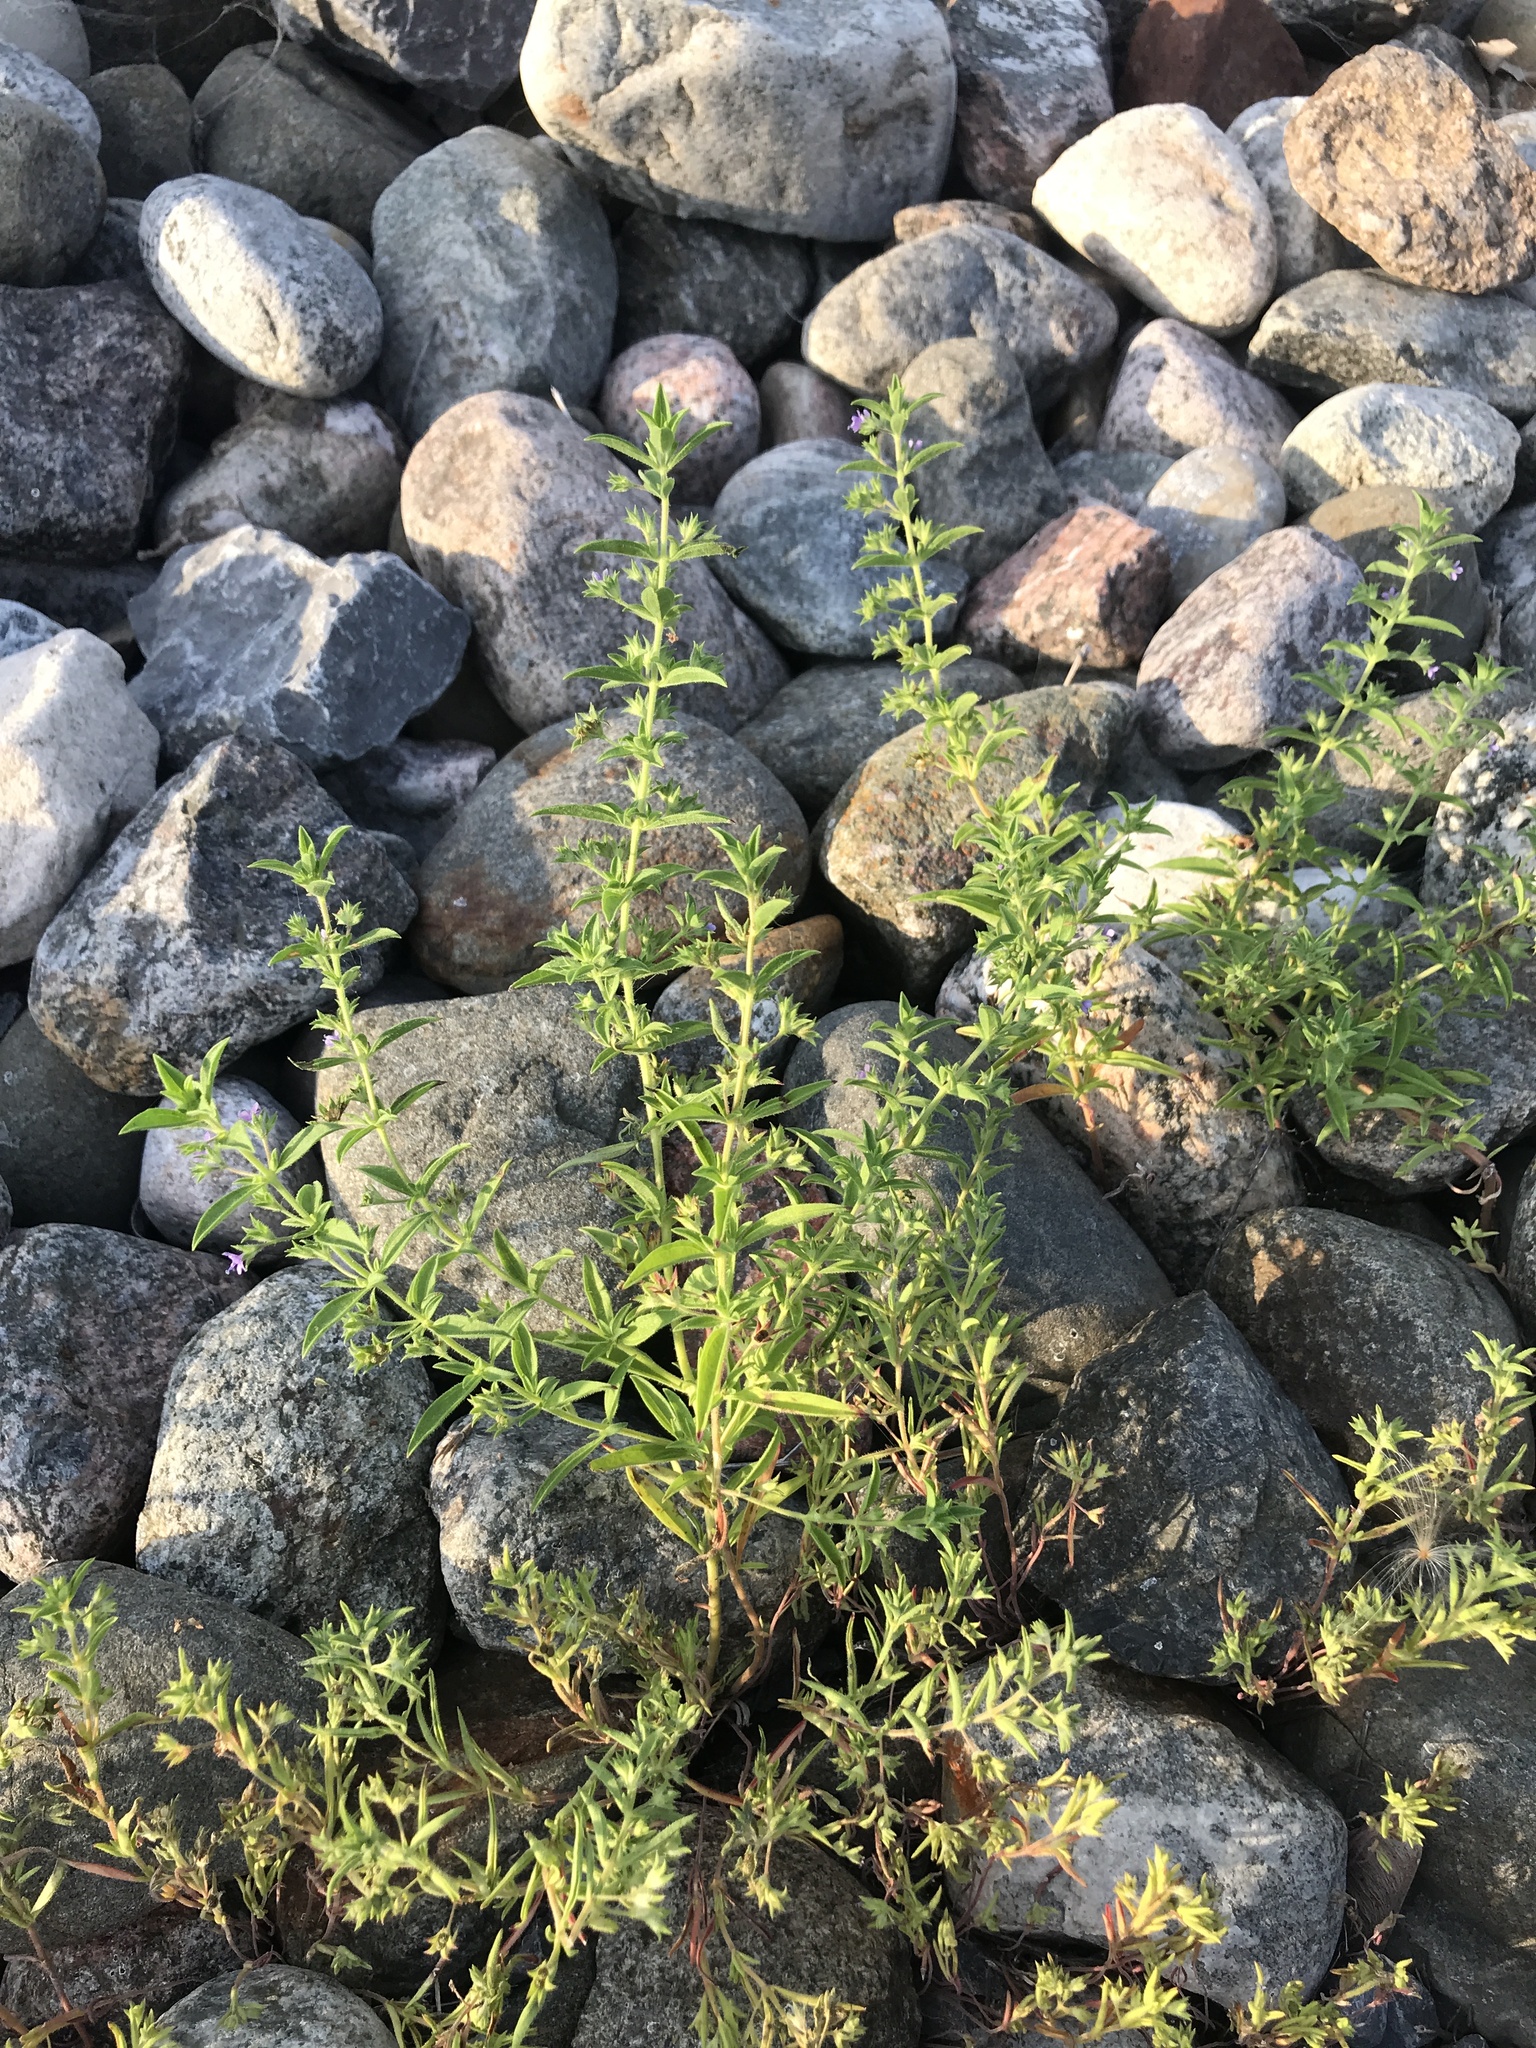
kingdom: Plantae
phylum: Tracheophyta
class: Magnoliopsida
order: Lamiales
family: Lamiaceae
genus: Trichostema
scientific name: Trichostema brachiatum
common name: False pennyroyal
